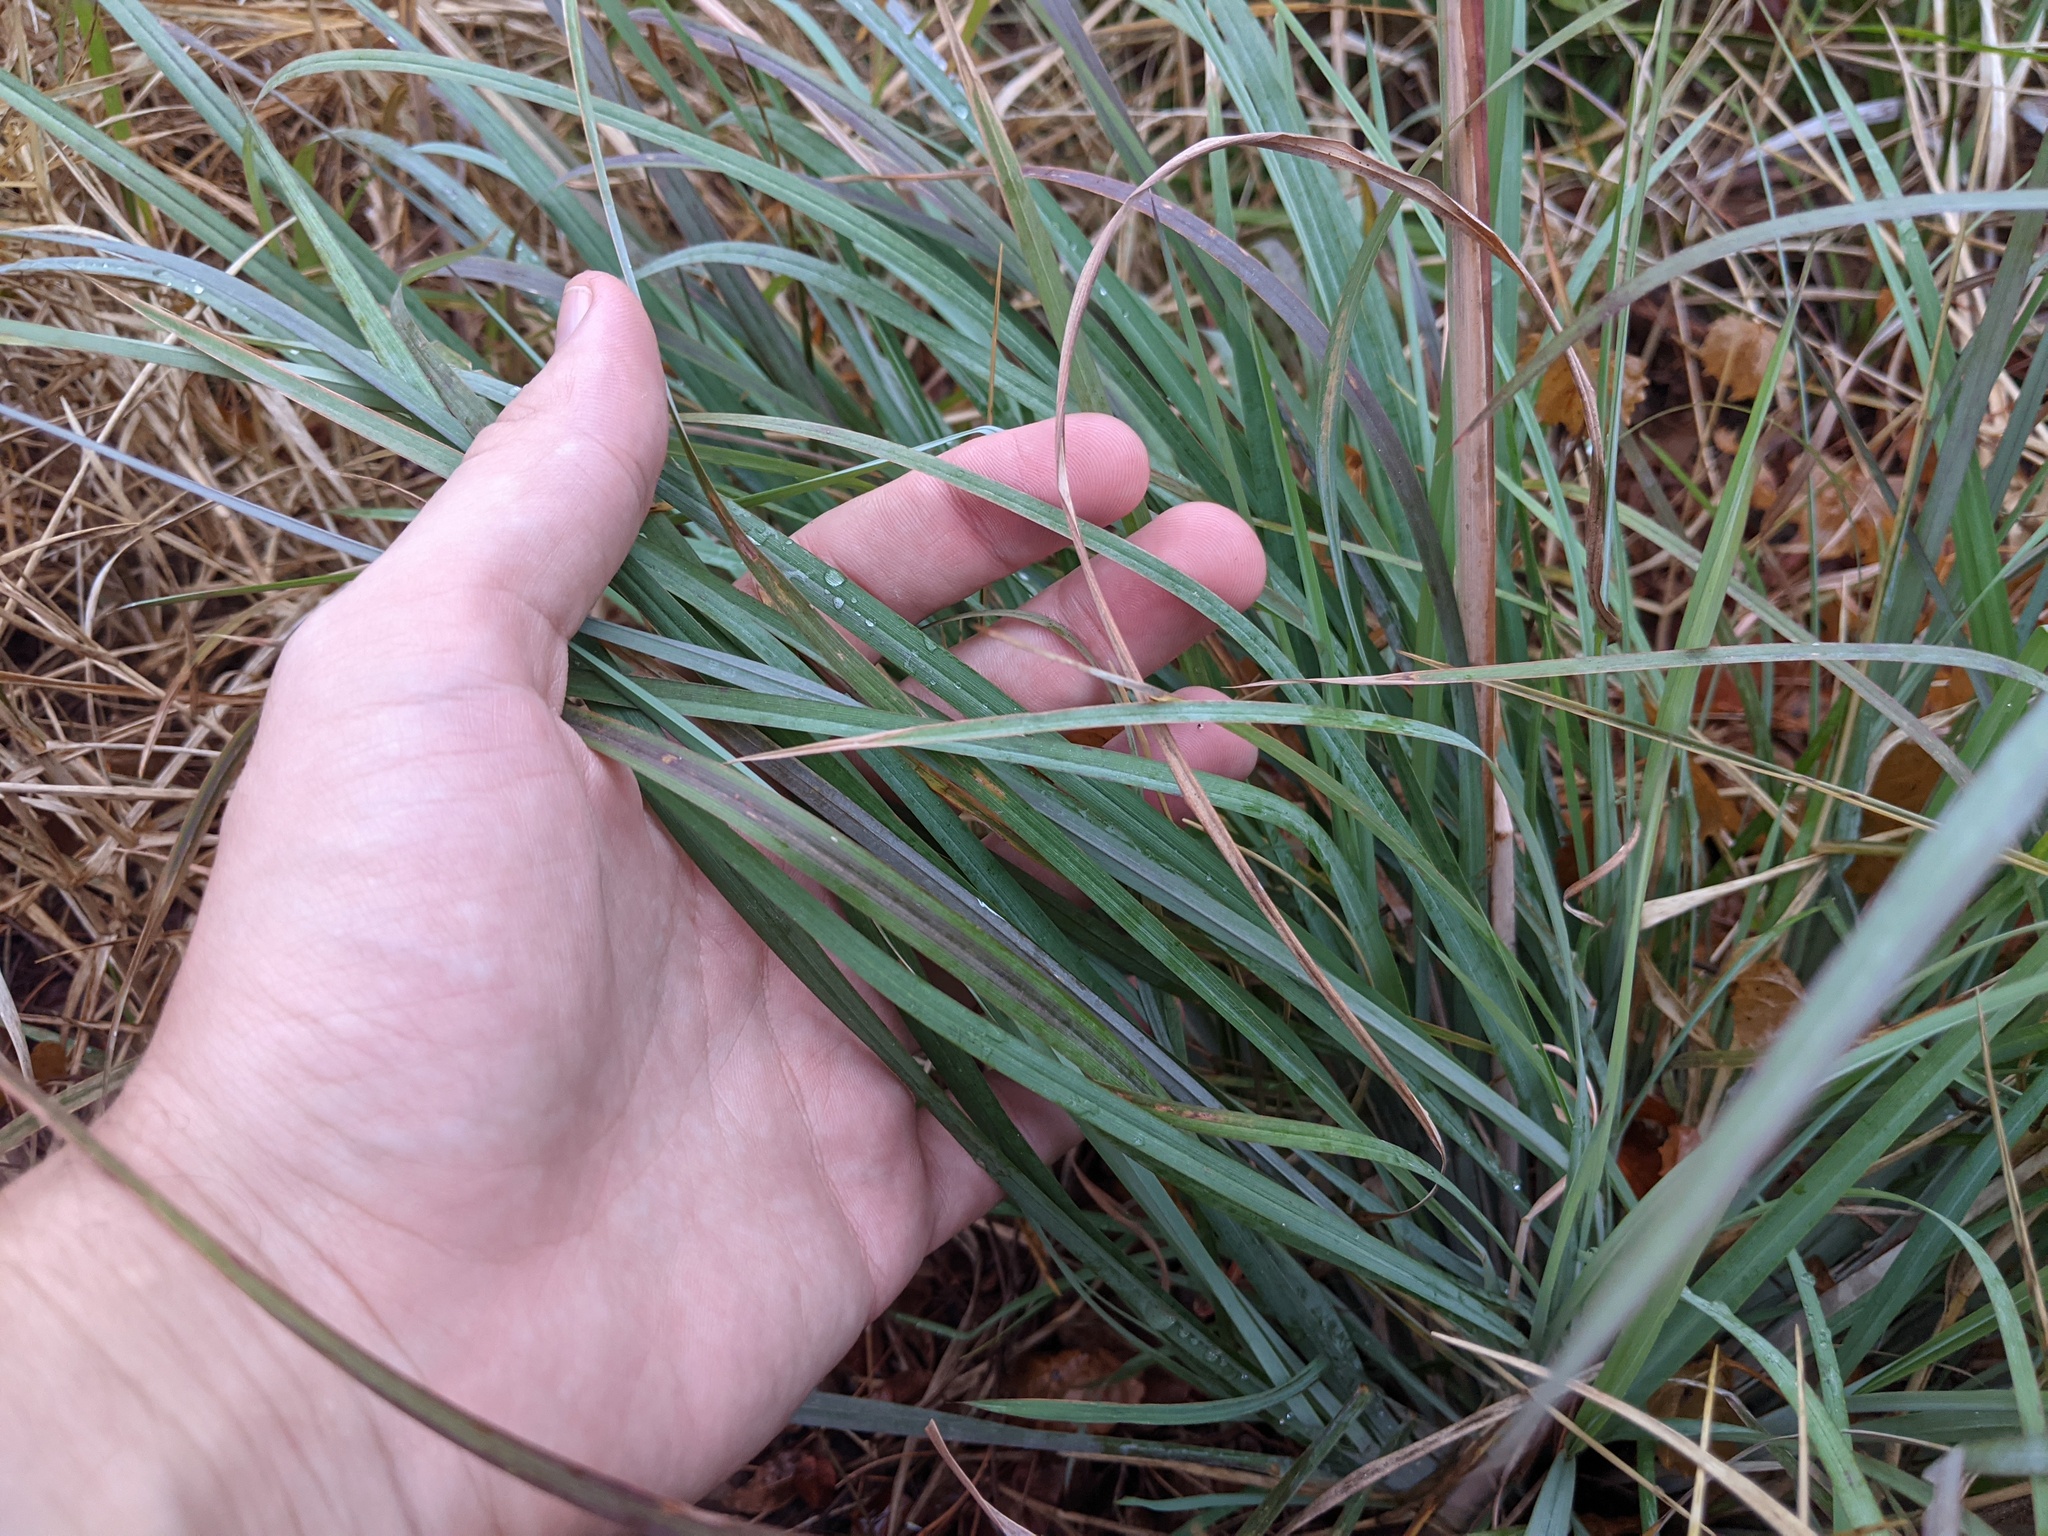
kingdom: Plantae
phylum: Tracheophyta
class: Liliopsida
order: Poales
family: Poaceae
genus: Andropogon
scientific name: Andropogon cretaceus
